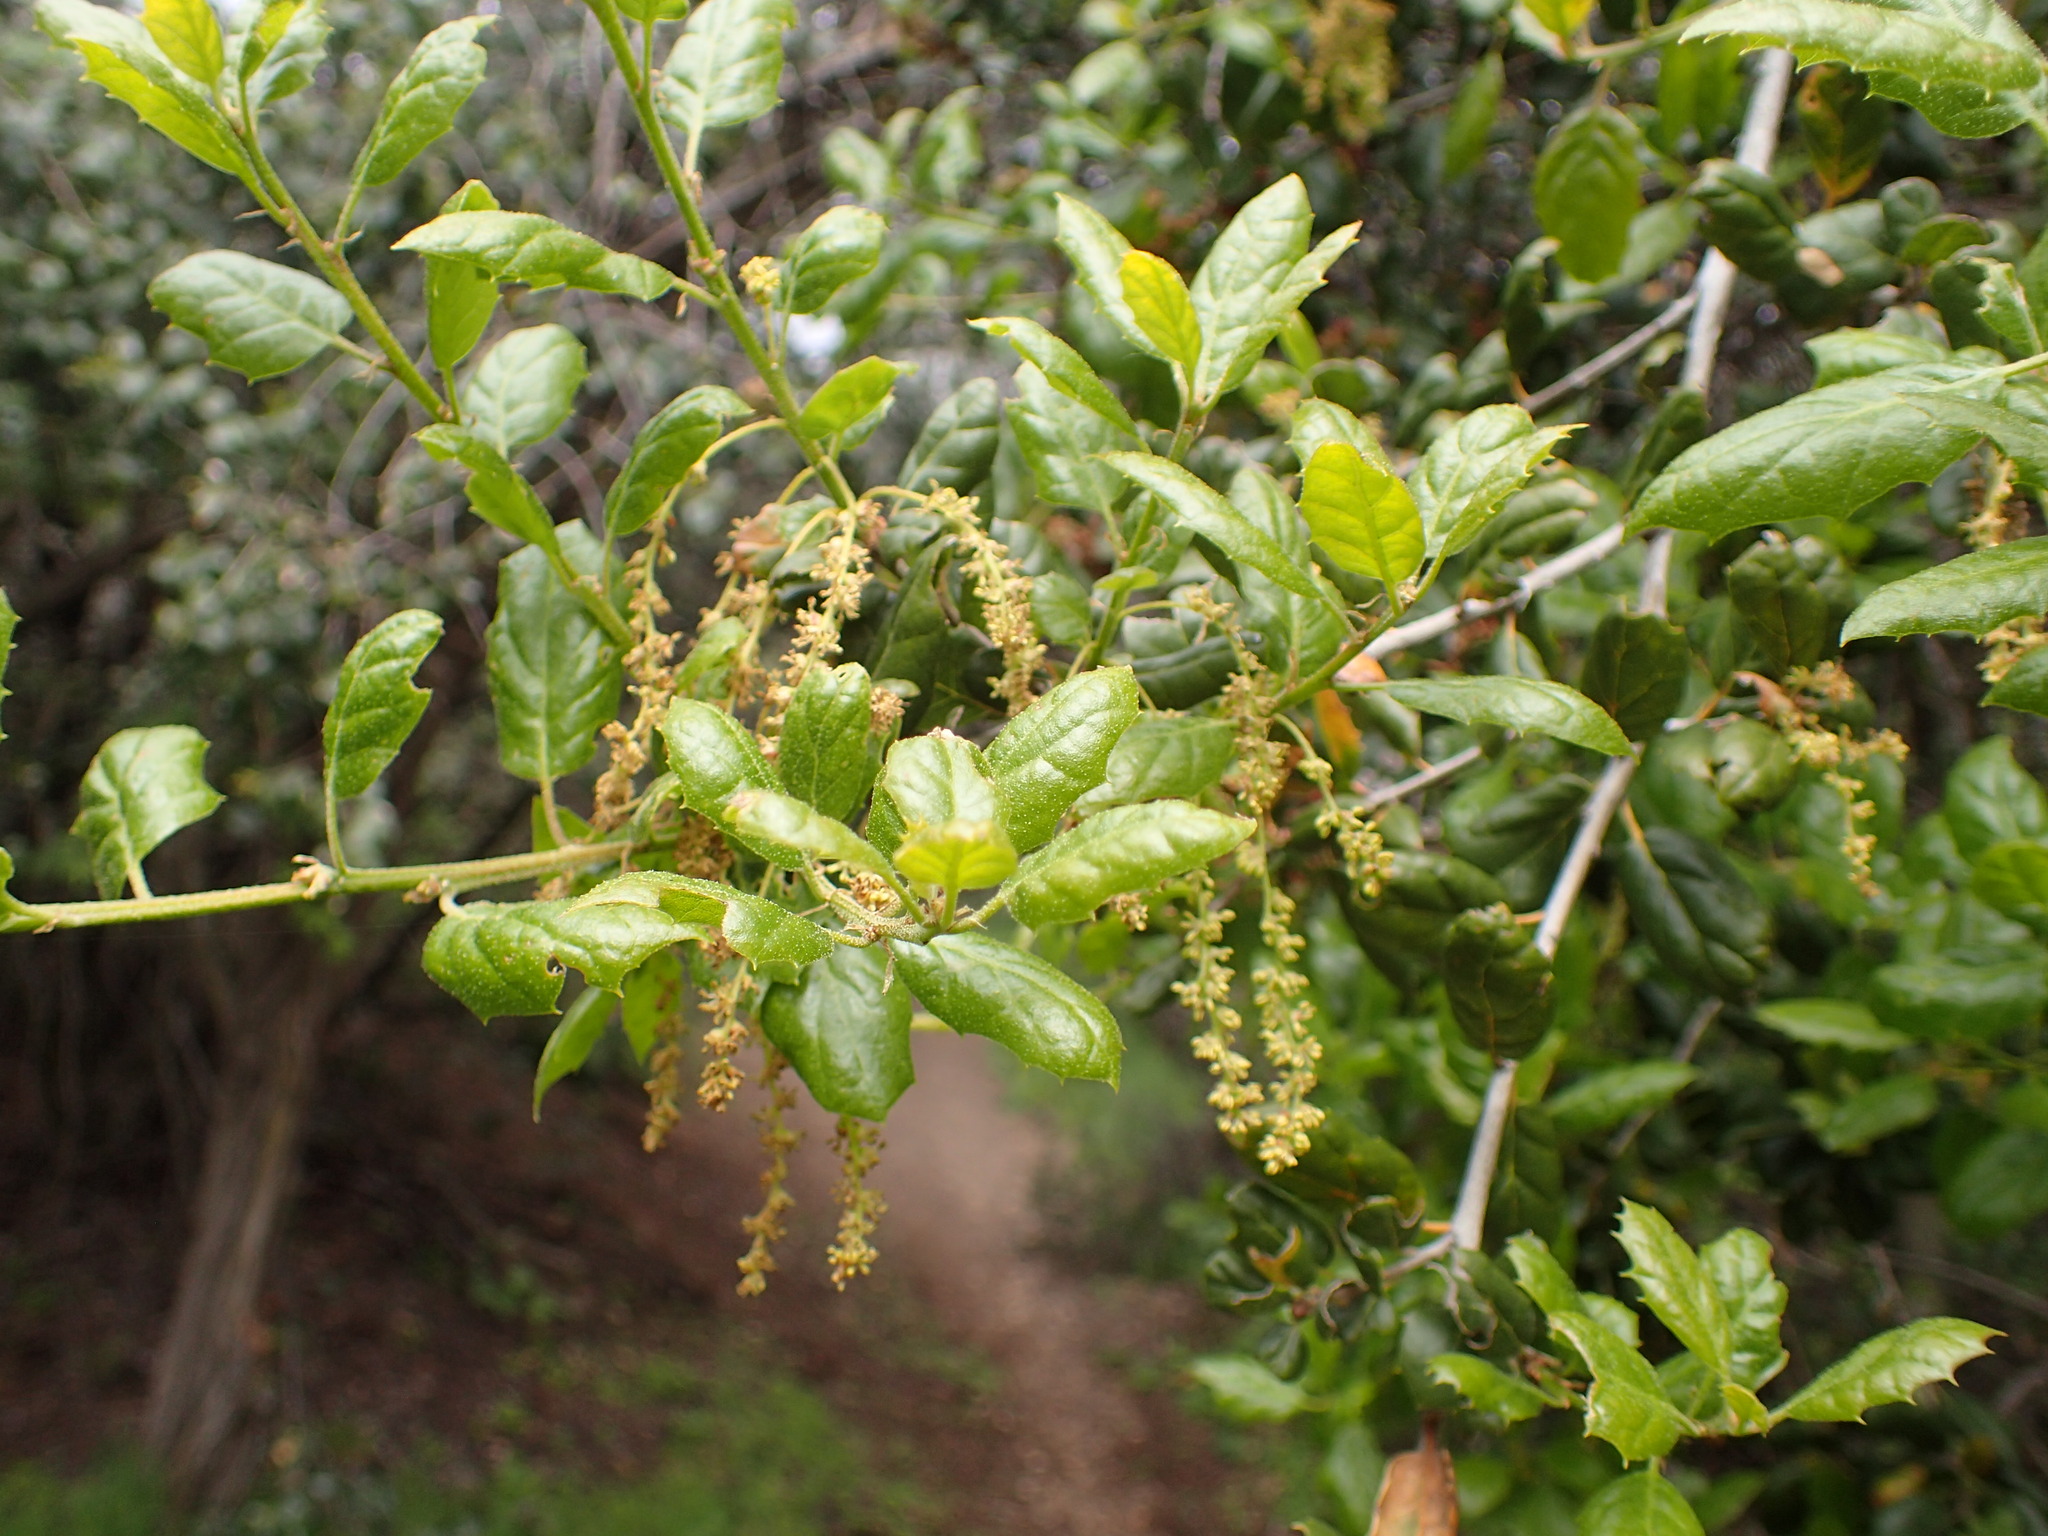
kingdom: Plantae
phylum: Tracheophyta
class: Magnoliopsida
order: Fagales
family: Fagaceae
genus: Quercus
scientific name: Quercus agrifolia
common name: California live oak
